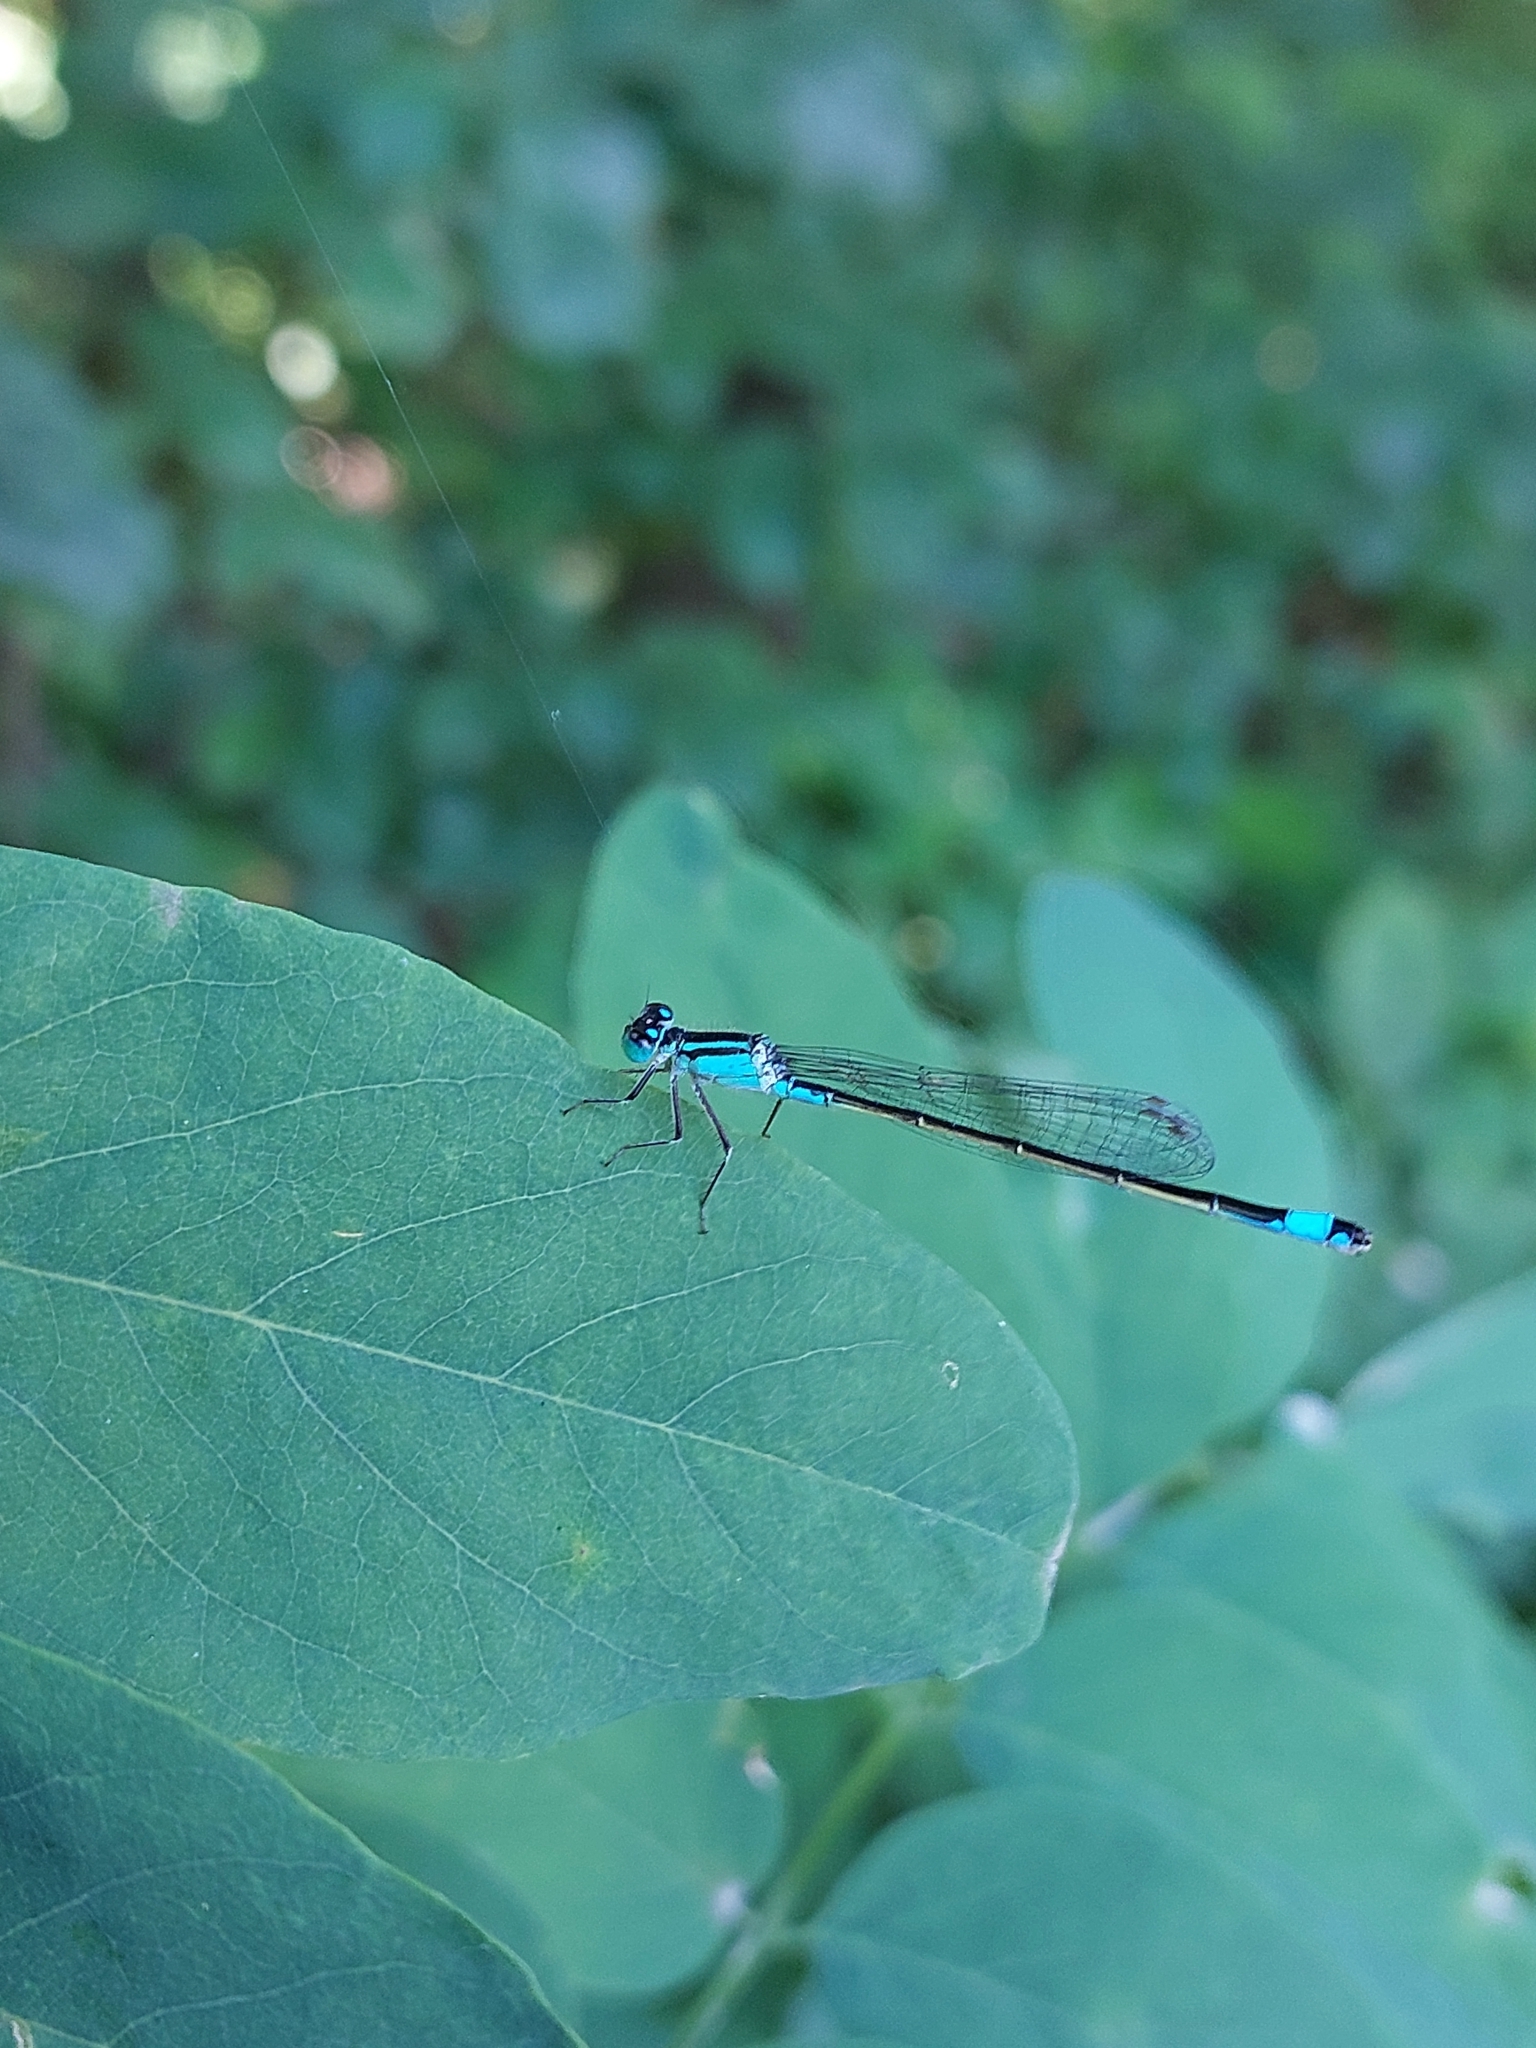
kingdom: Animalia
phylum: Arthropoda
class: Insecta
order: Odonata
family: Coenagrionidae
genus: Ischnura
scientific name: Ischnura elegans
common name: Blue-tailed damselfly
